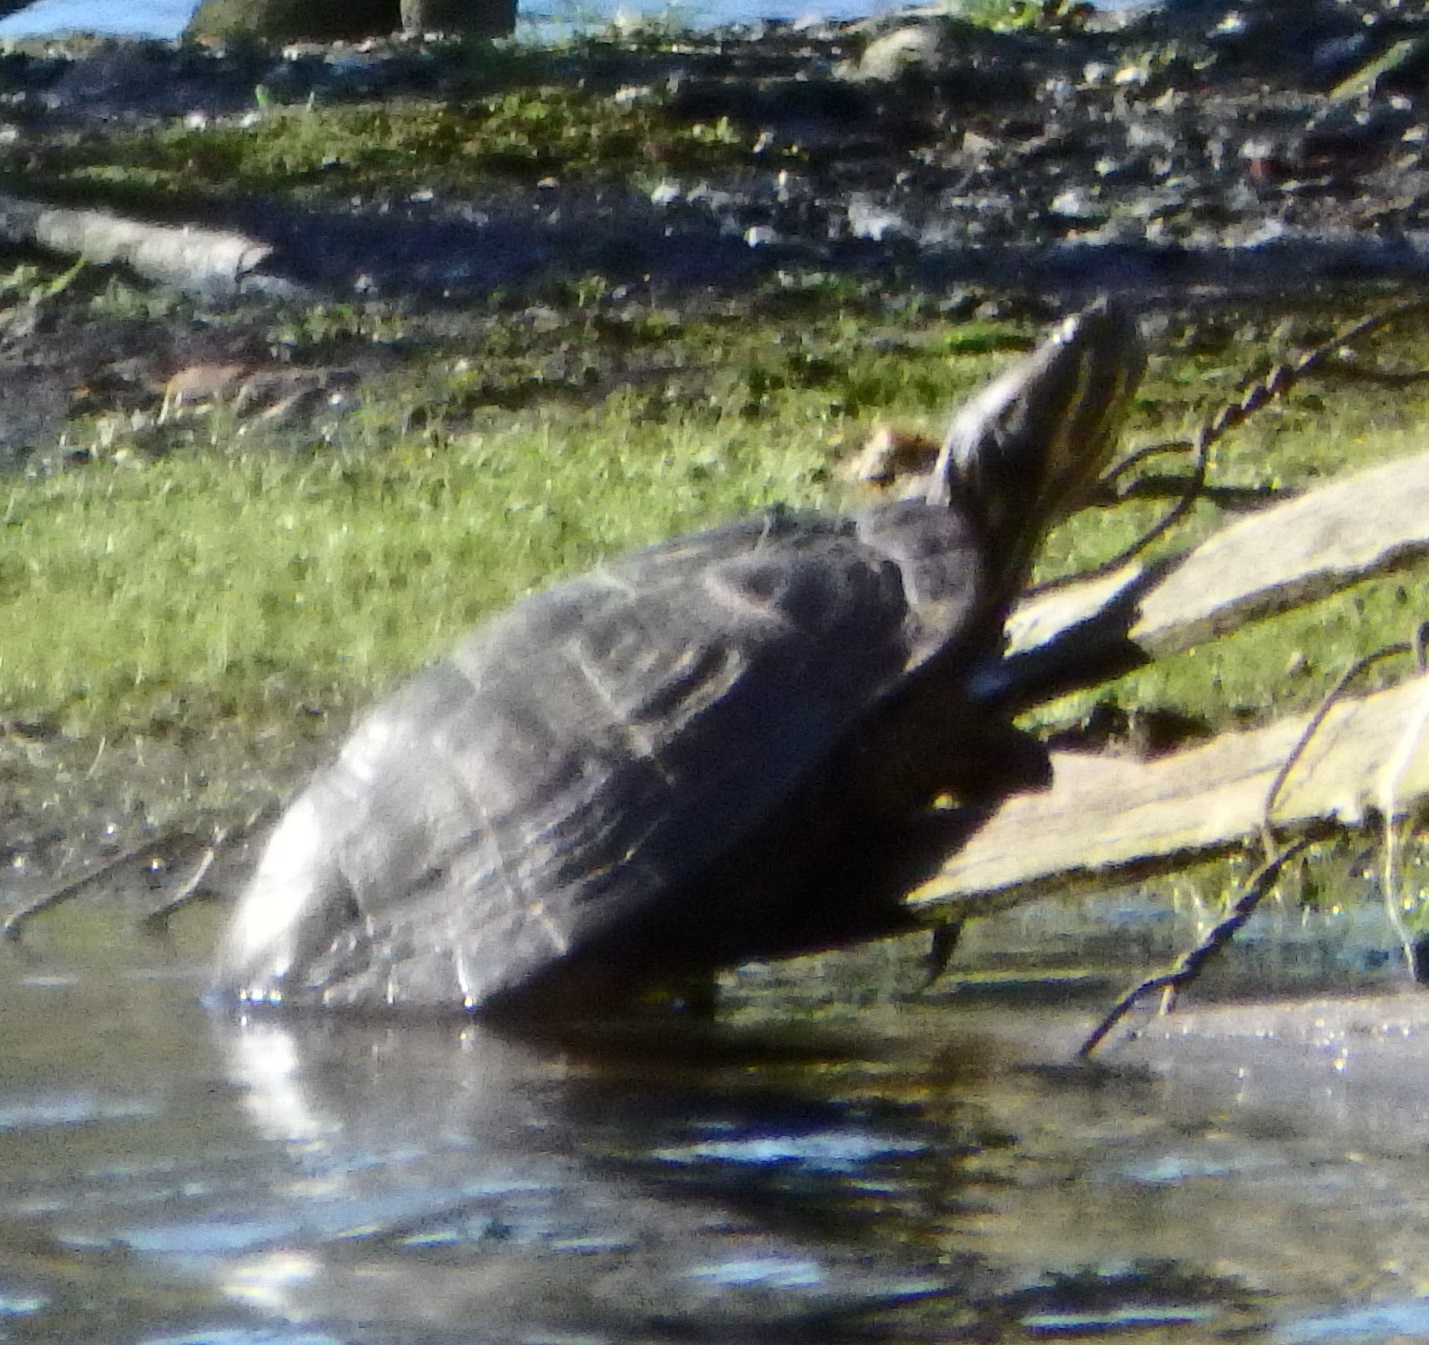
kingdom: Animalia
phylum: Chordata
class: Testudines
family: Emydidae
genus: Trachemys
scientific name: Trachemys scripta
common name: Slider
